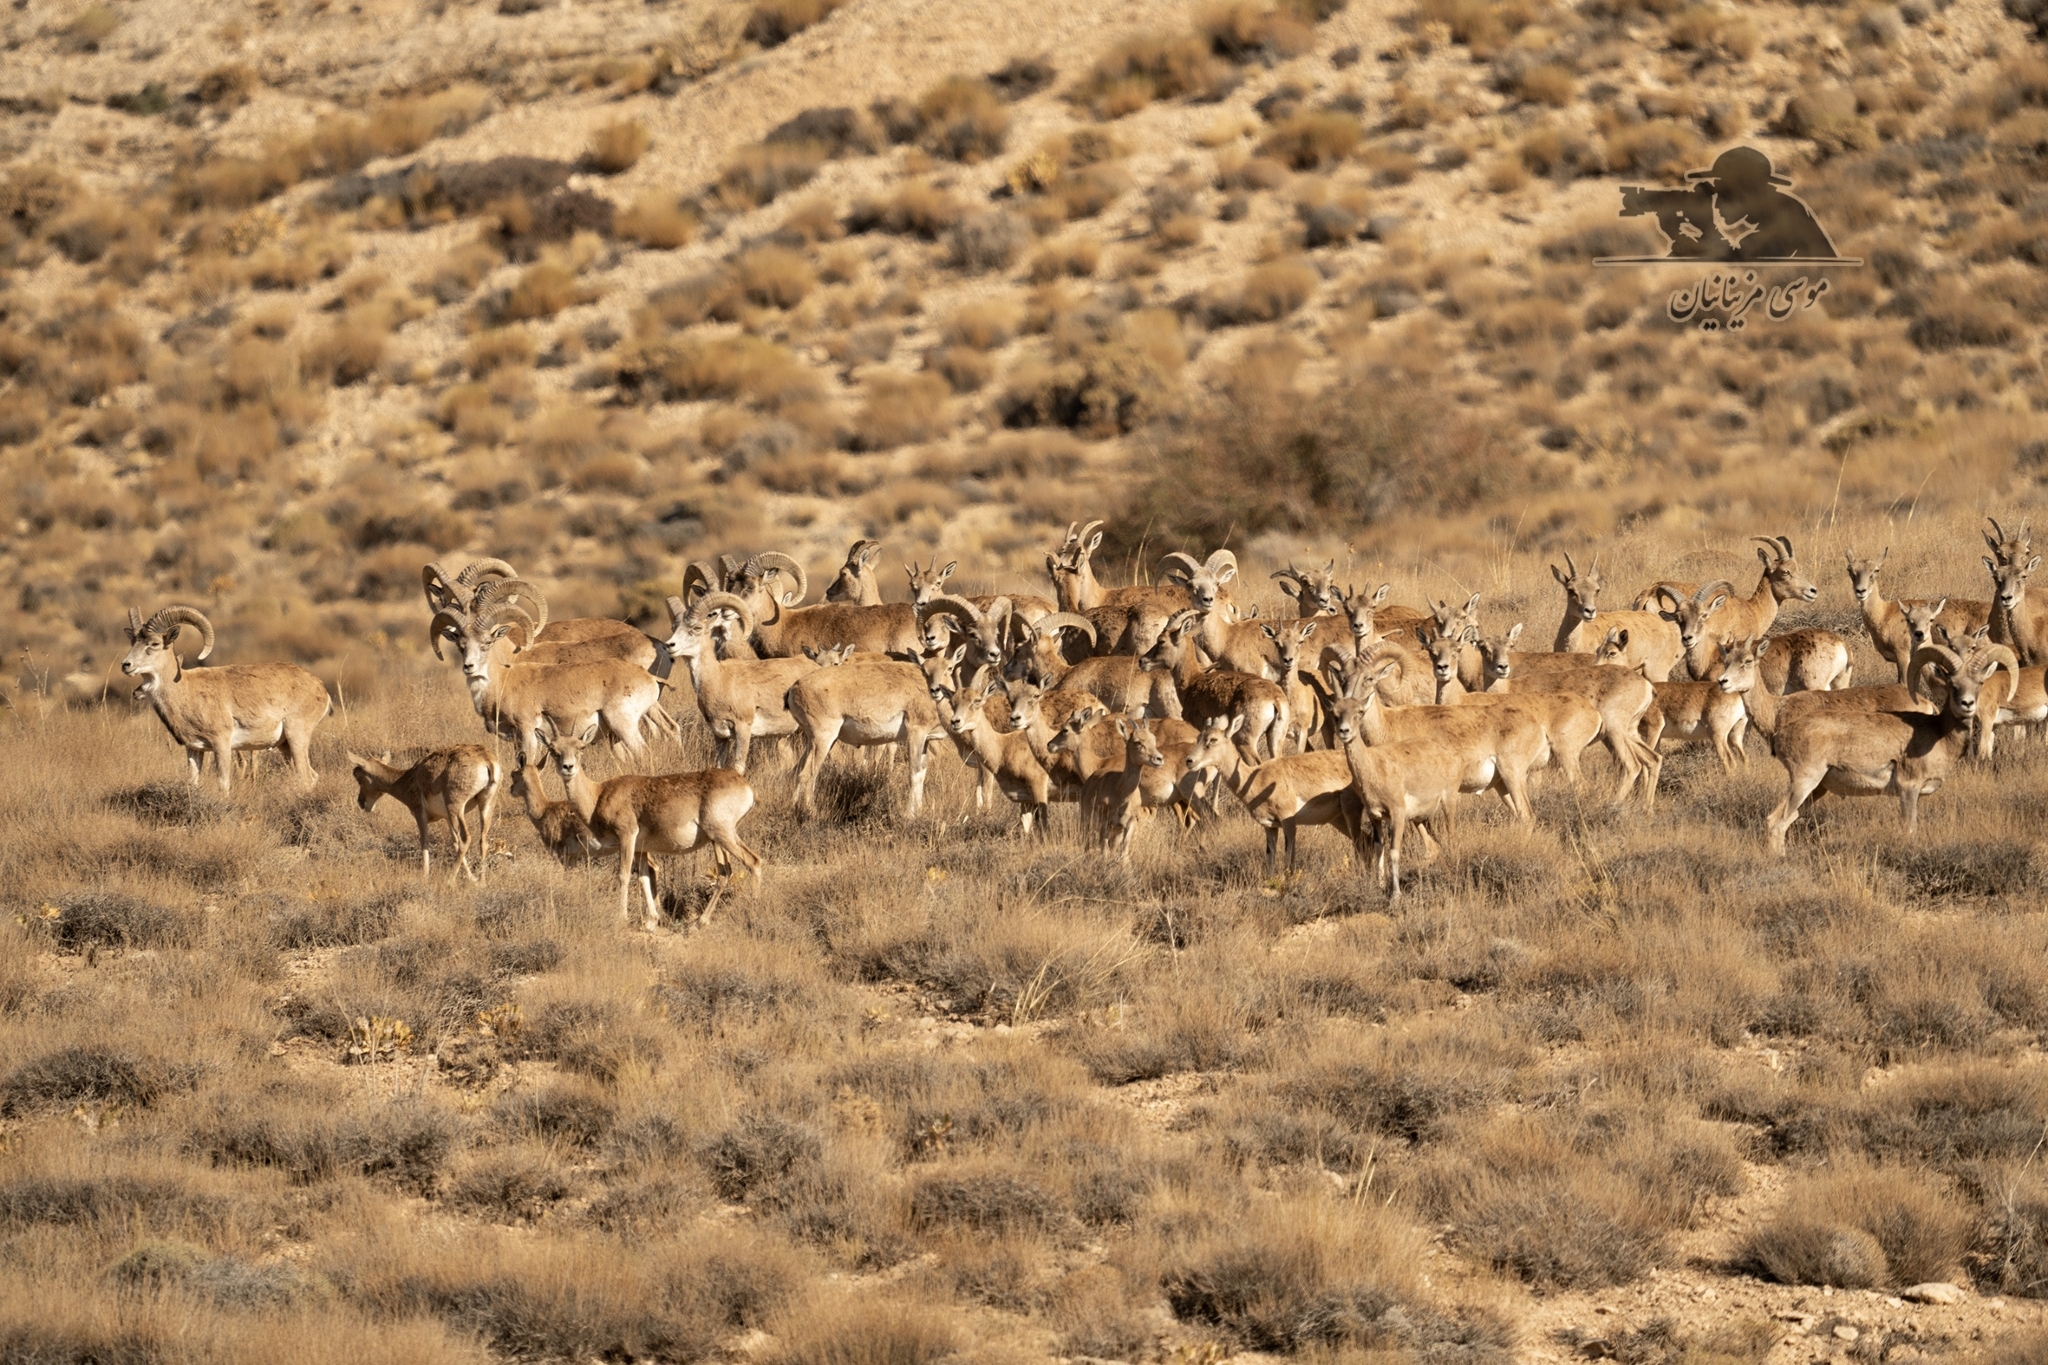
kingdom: Animalia
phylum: Chordata
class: Mammalia
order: Artiodactyla
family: Bovidae
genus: Ovis
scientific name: Ovis aries
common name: Domestic sheep
